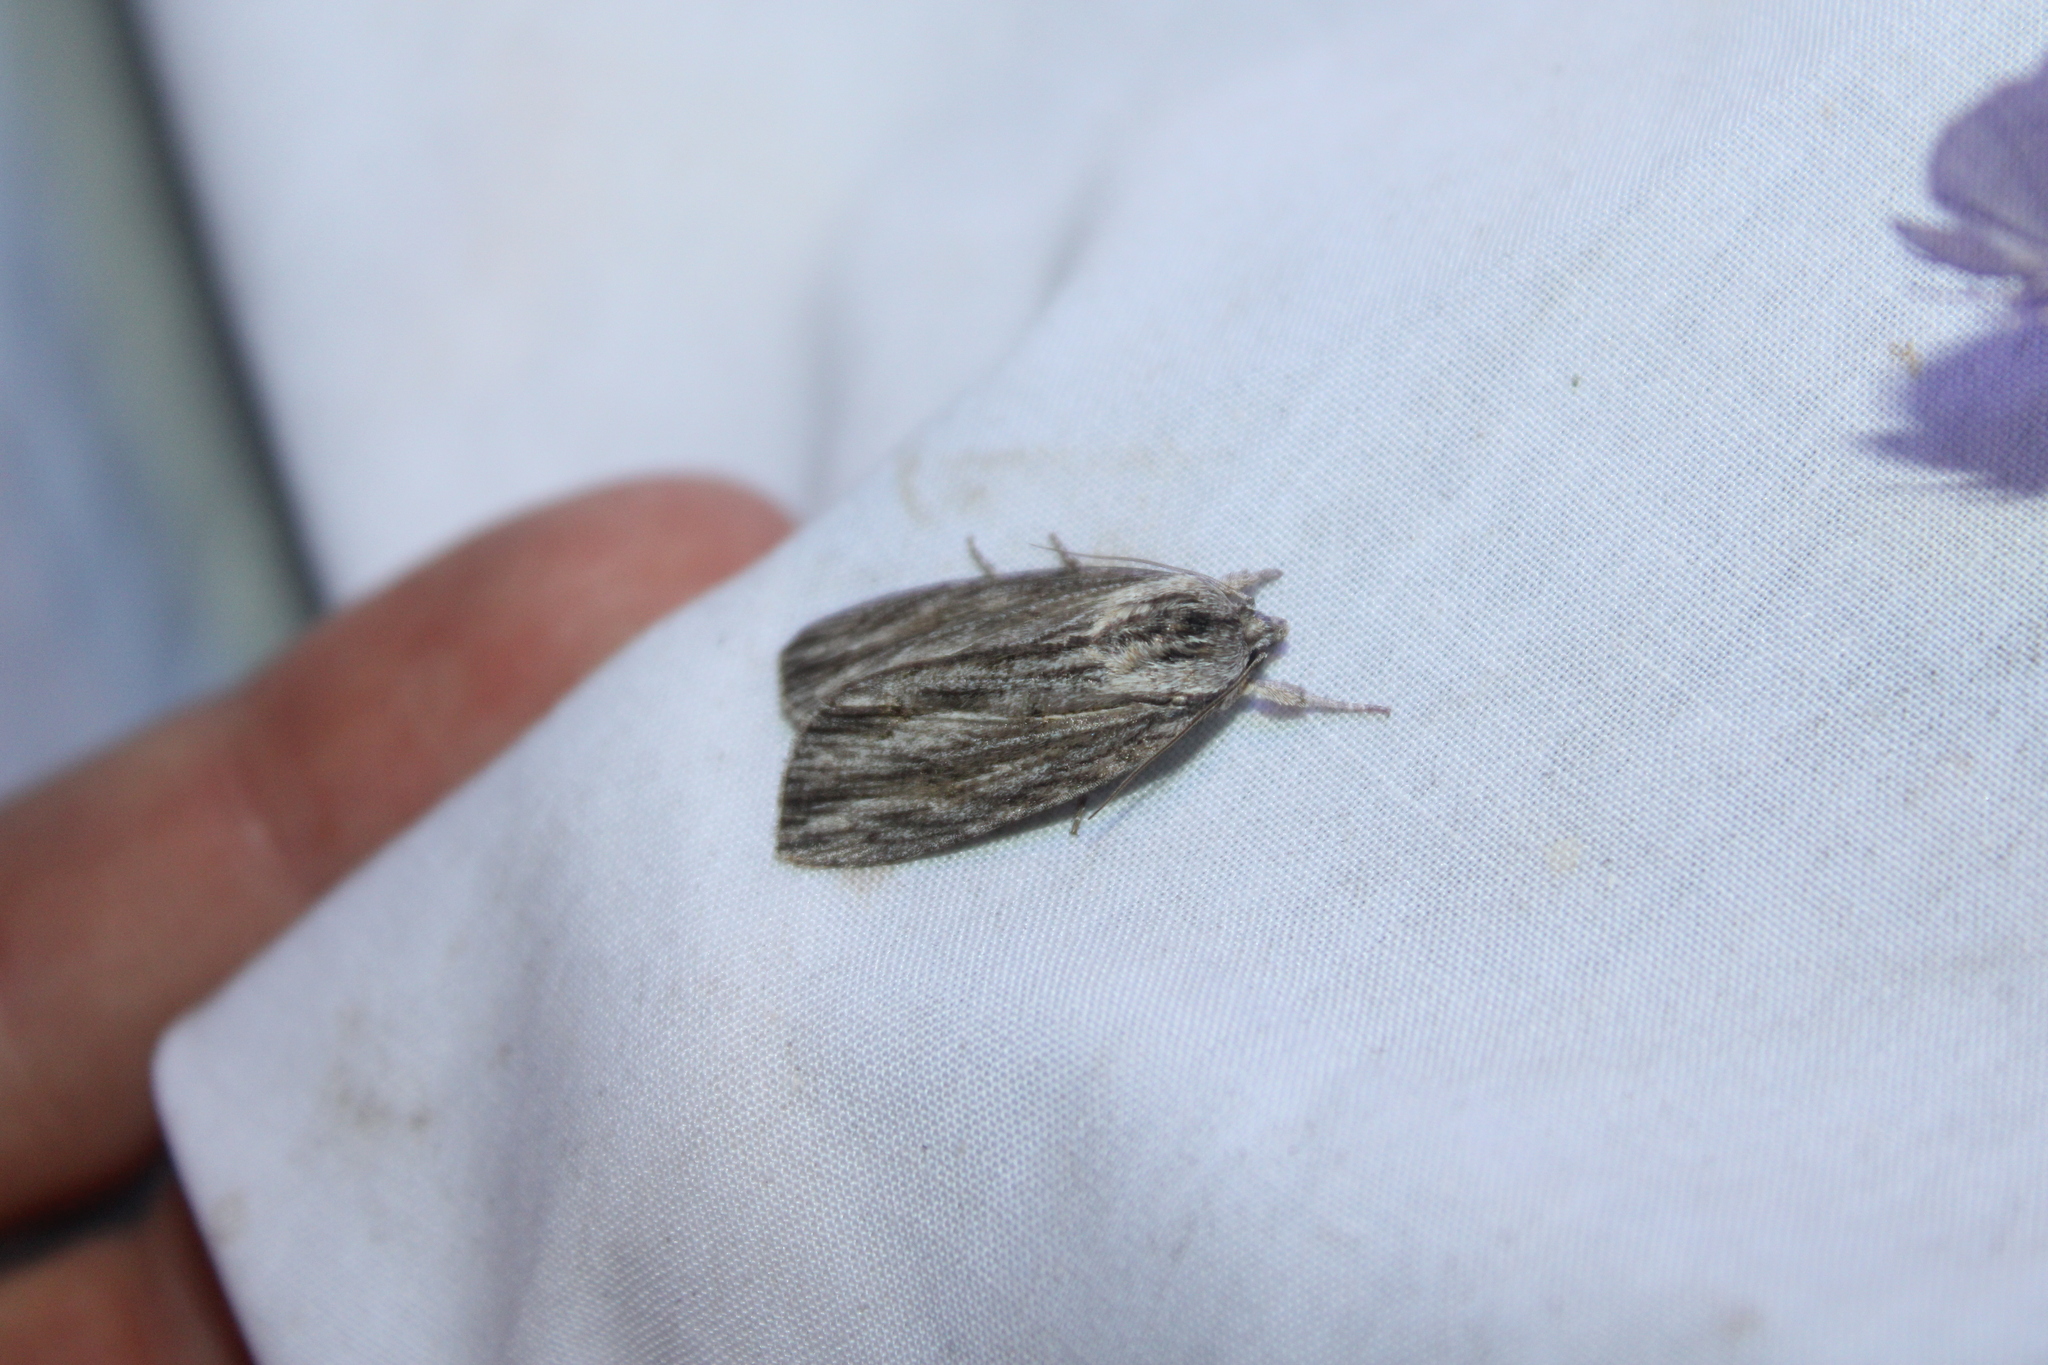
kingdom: Animalia
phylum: Arthropoda
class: Insecta
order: Lepidoptera
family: Noctuidae
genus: Acronicta
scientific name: Acronicta lithospila
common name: Streaked dagger
